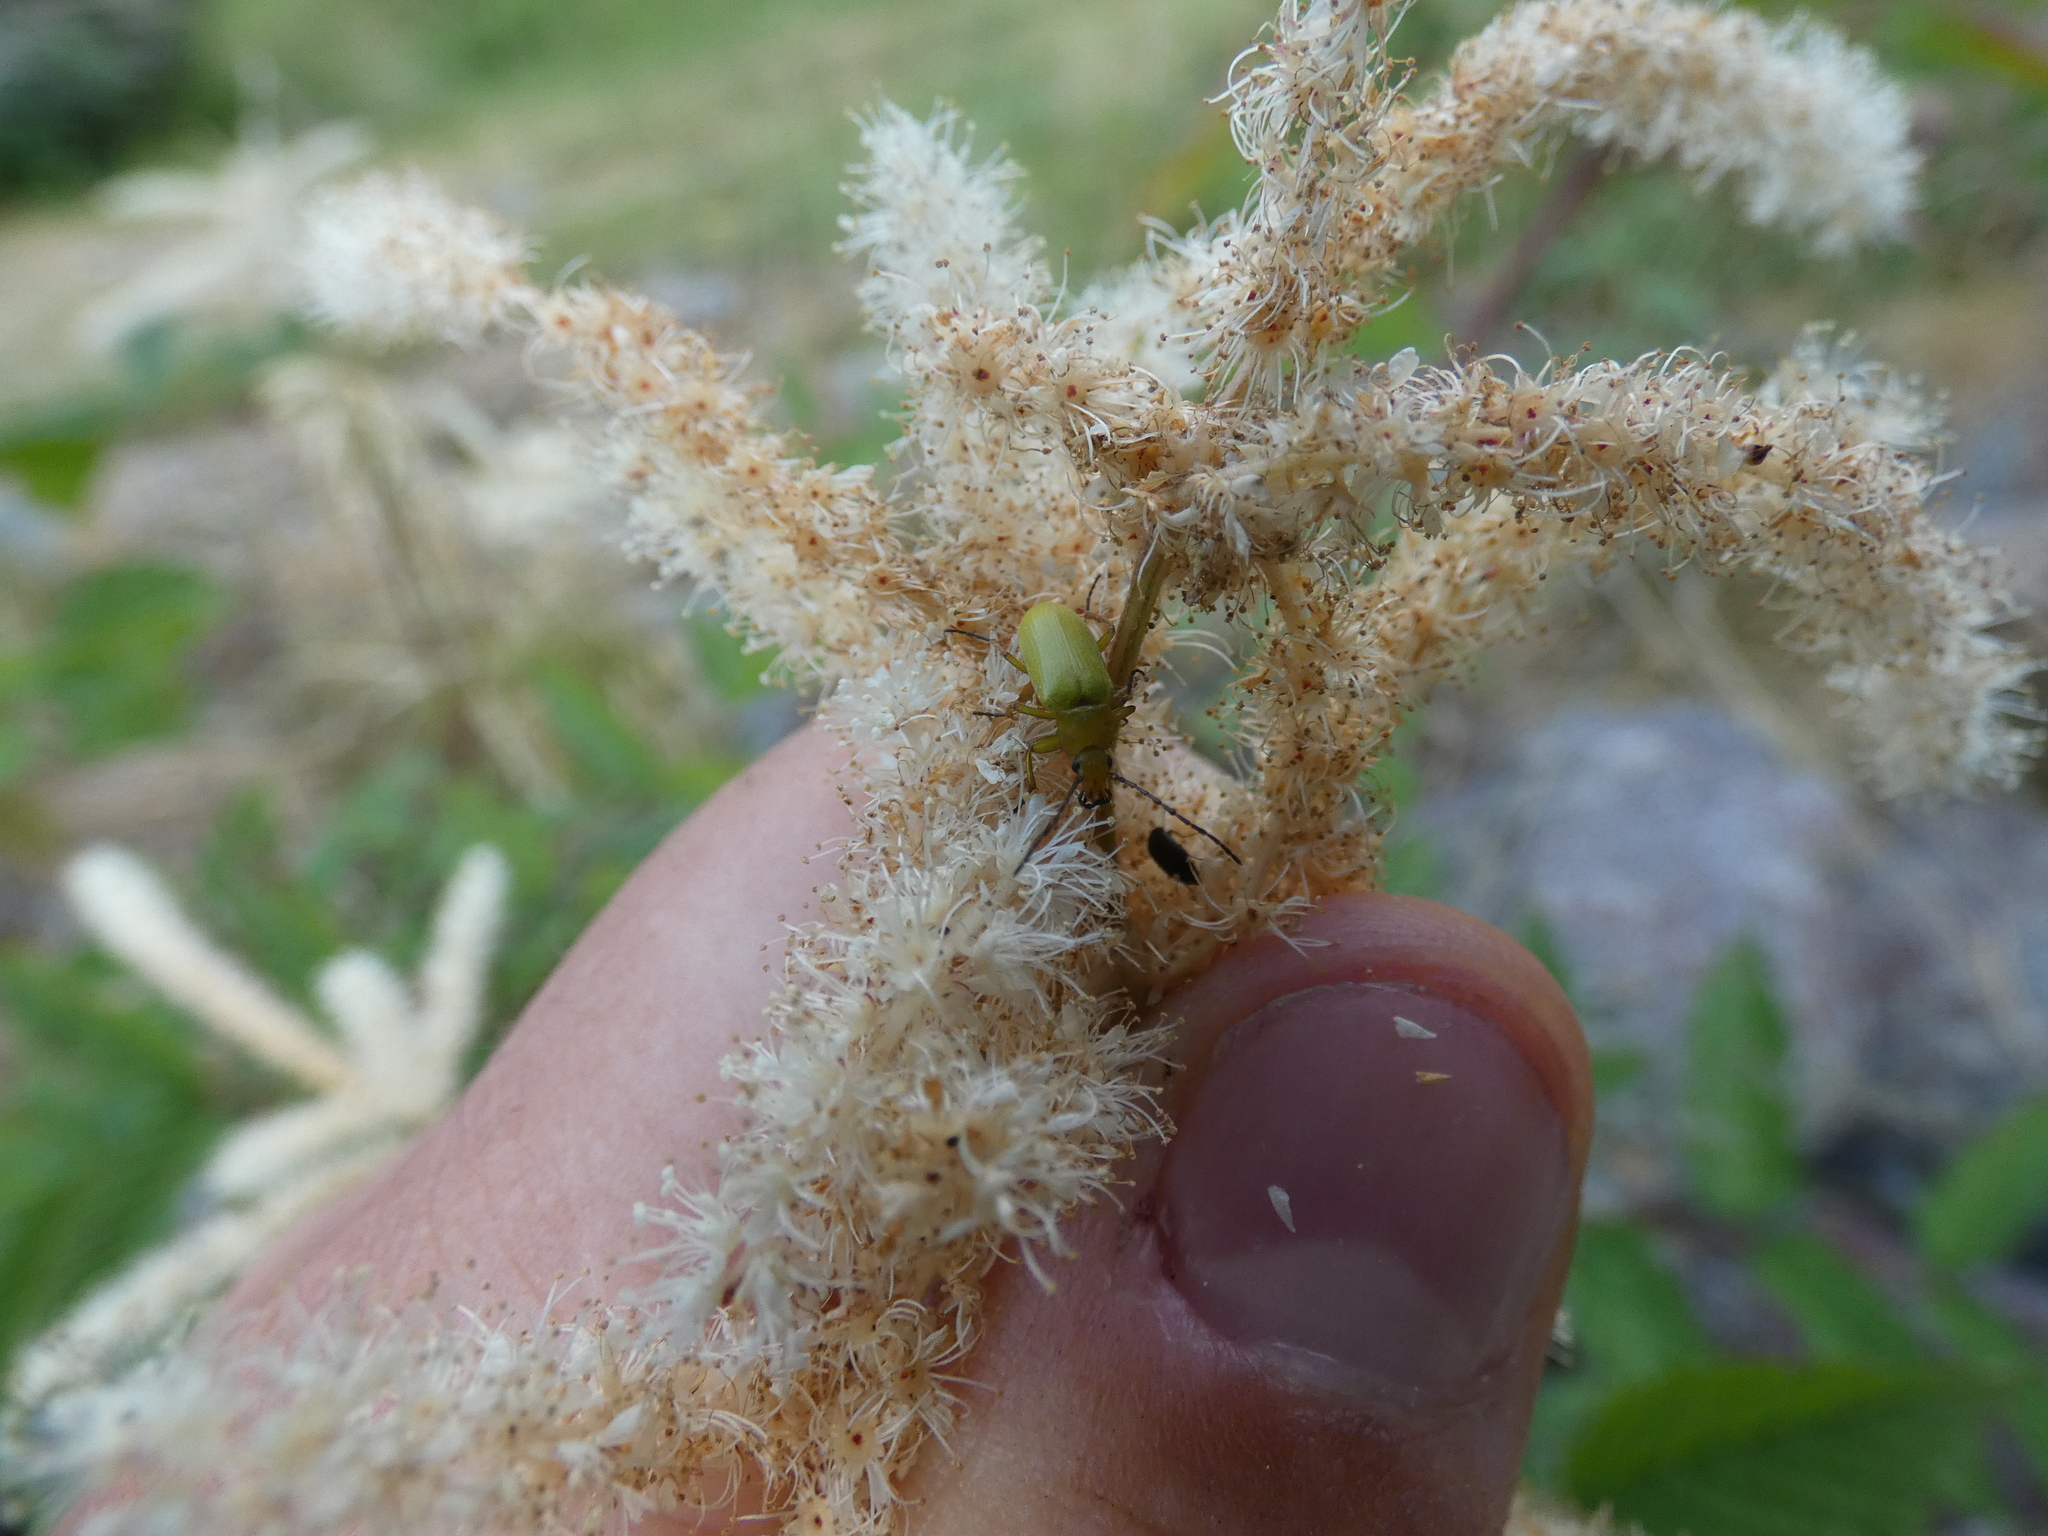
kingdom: Animalia
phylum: Arthropoda
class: Insecta
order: Coleoptera
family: Tenebrionidae
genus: Cteniopus
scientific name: Cteniopus sulphureus
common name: Sulphur beetle
